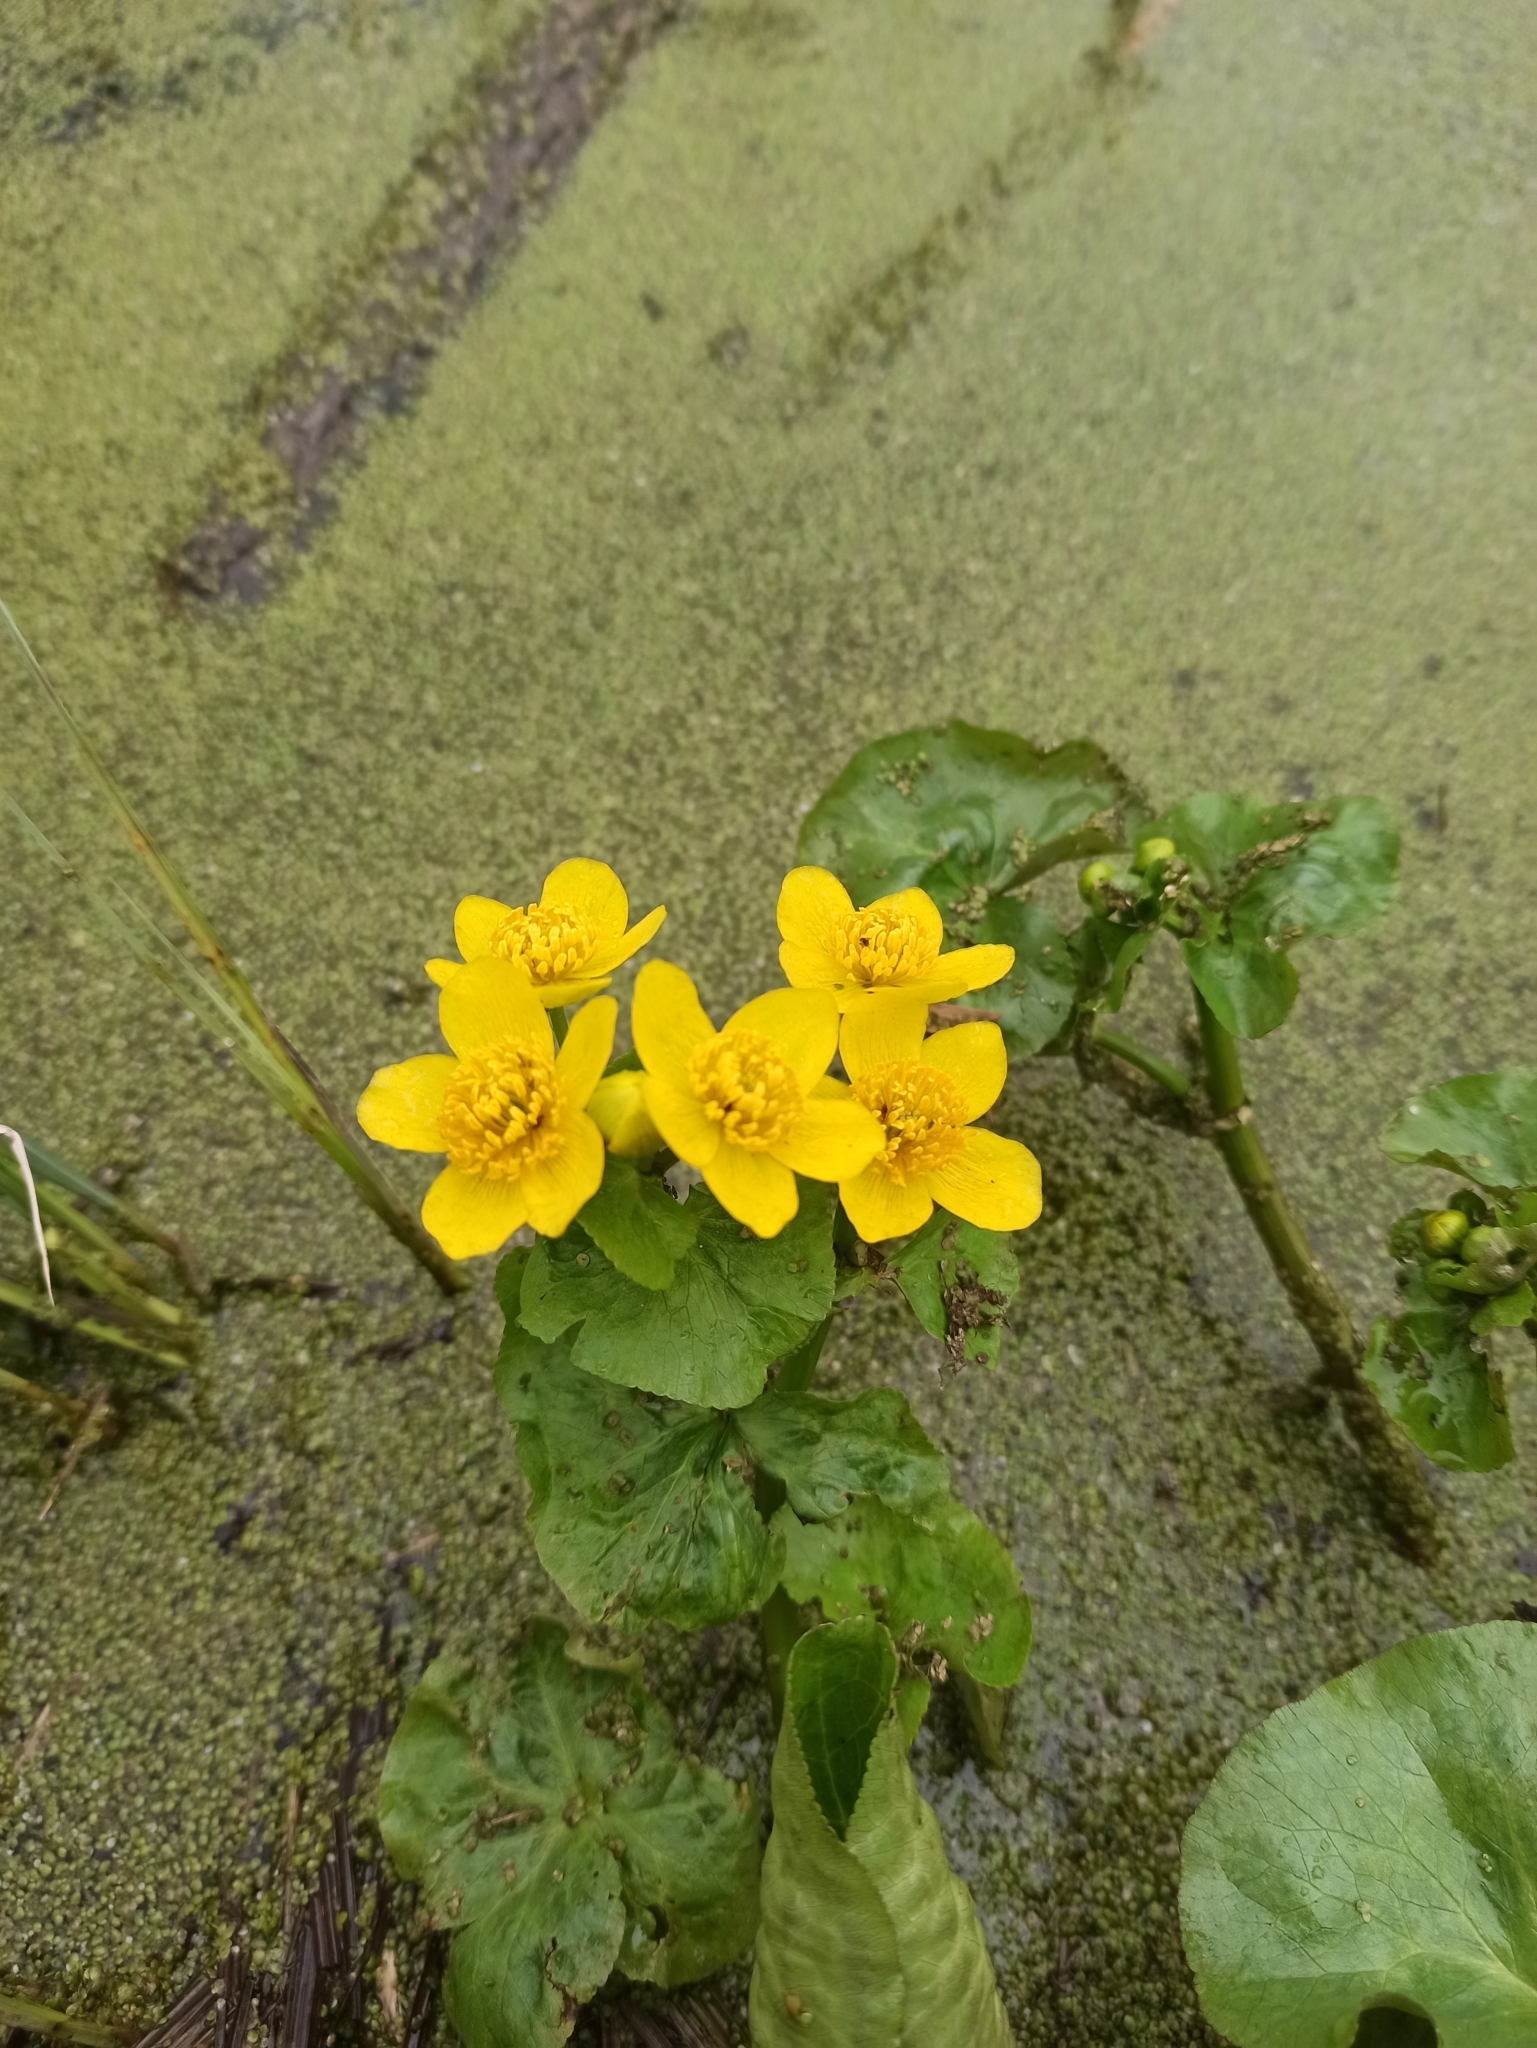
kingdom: Plantae
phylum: Tracheophyta
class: Magnoliopsida
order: Ranunculales
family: Ranunculaceae
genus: Caltha
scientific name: Caltha palustris
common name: Marsh marigold
